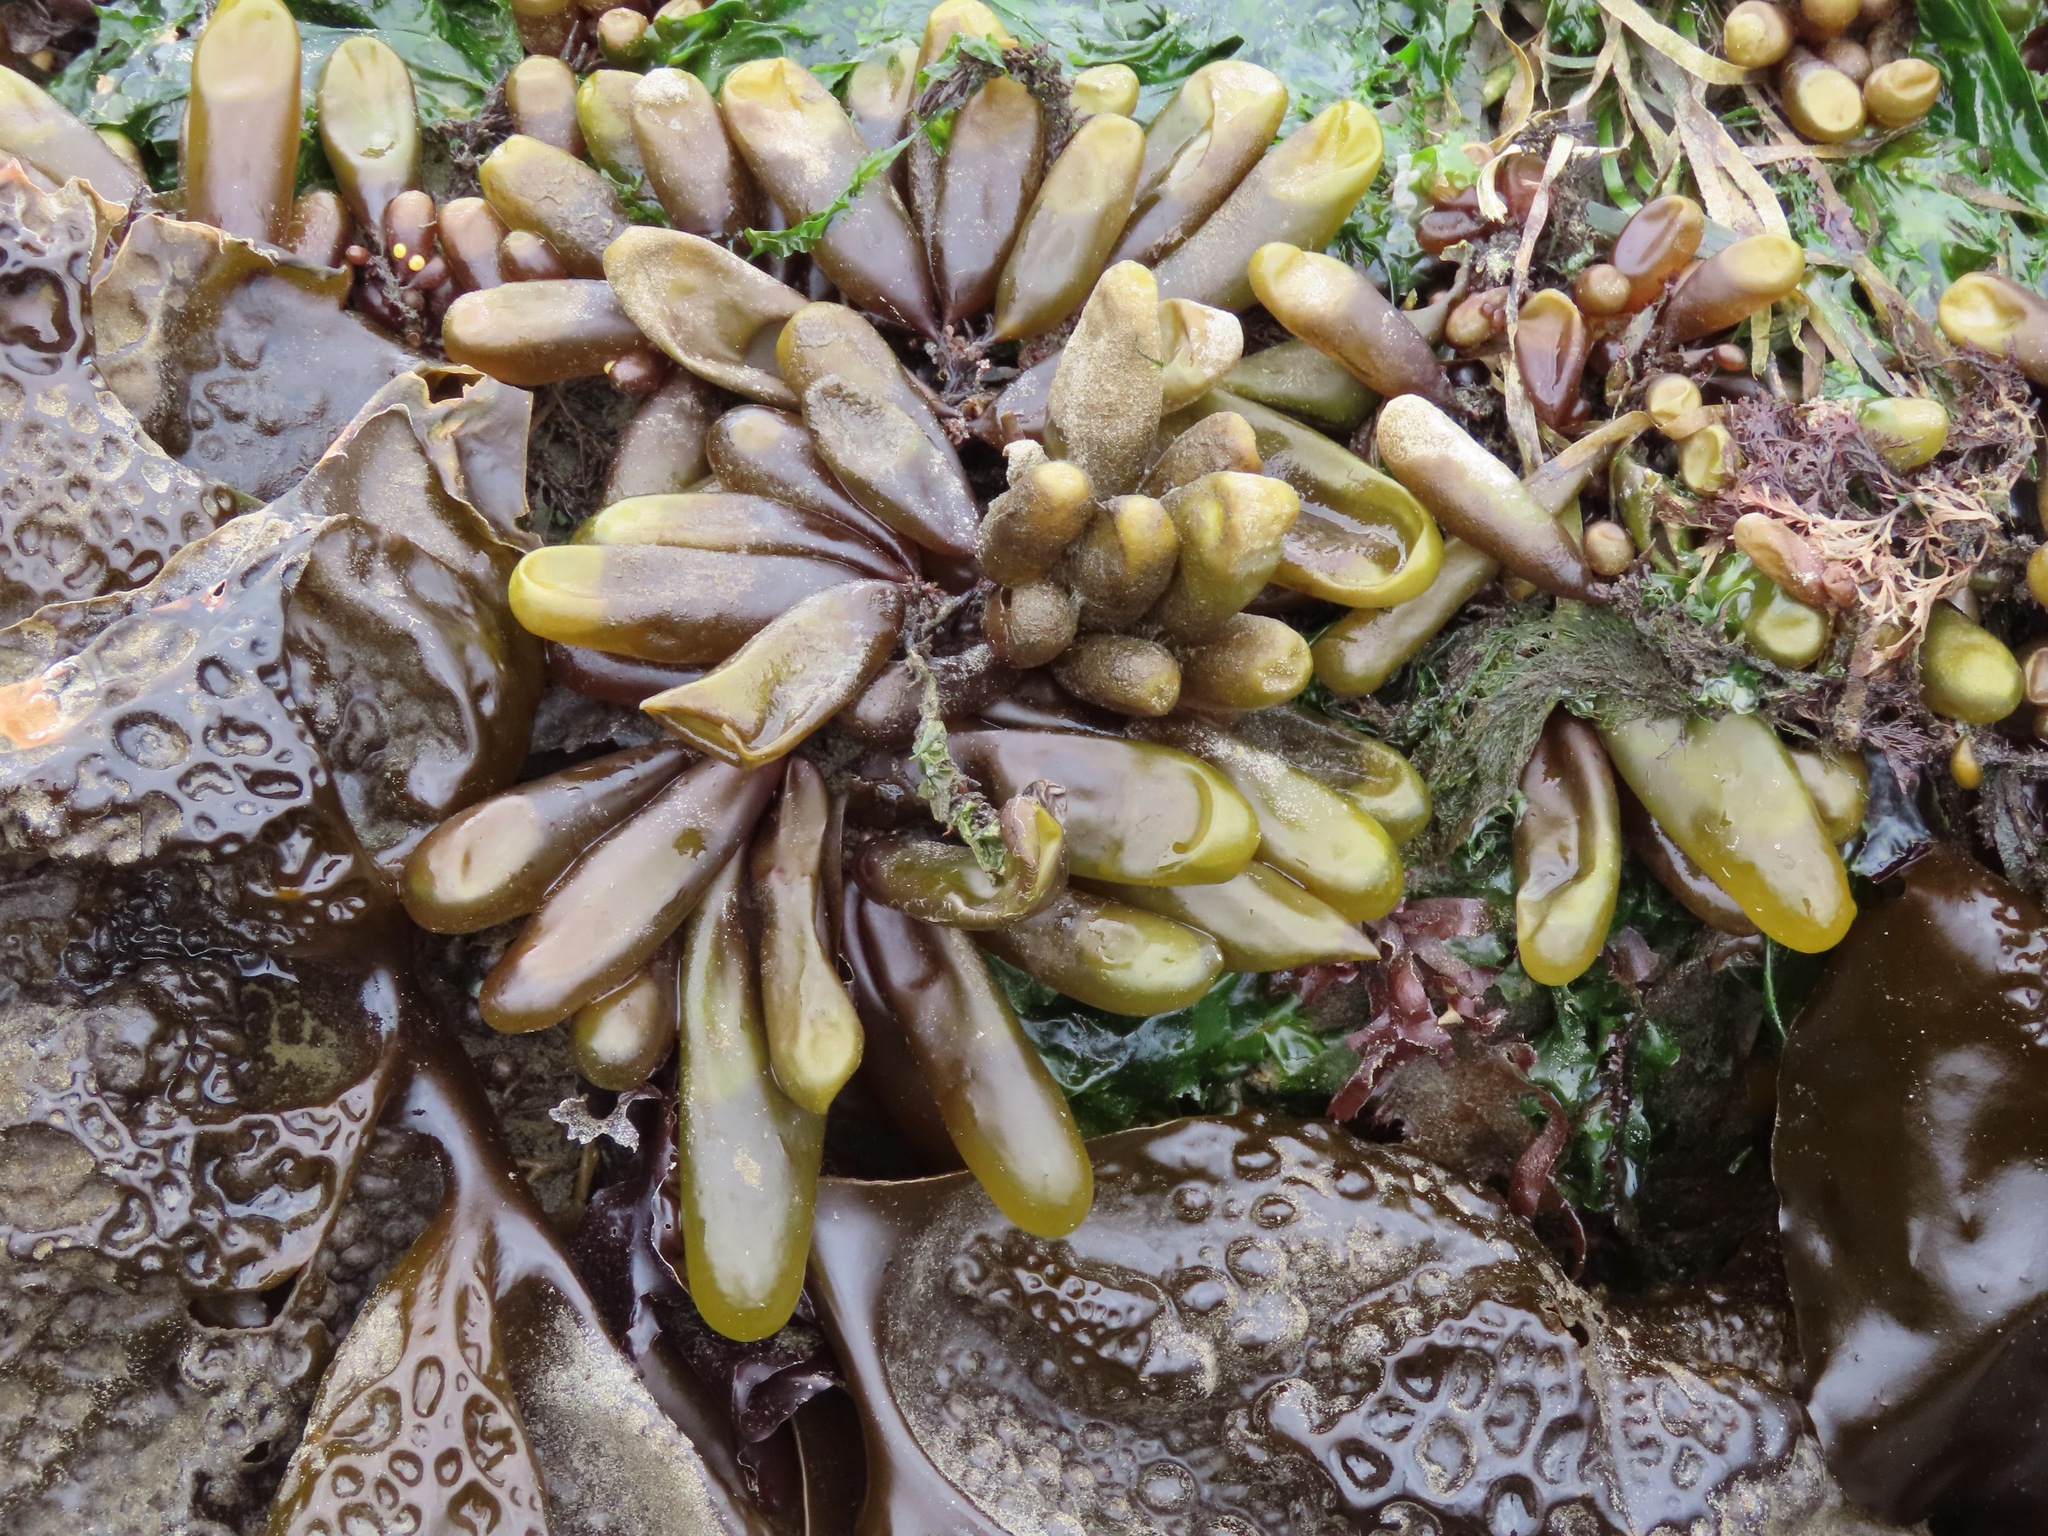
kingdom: Plantae
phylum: Rhodophyta
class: Florideophyceae
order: Palmariales
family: Palmariaceae
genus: Halosaccion
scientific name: Halosaccion glandiforme
